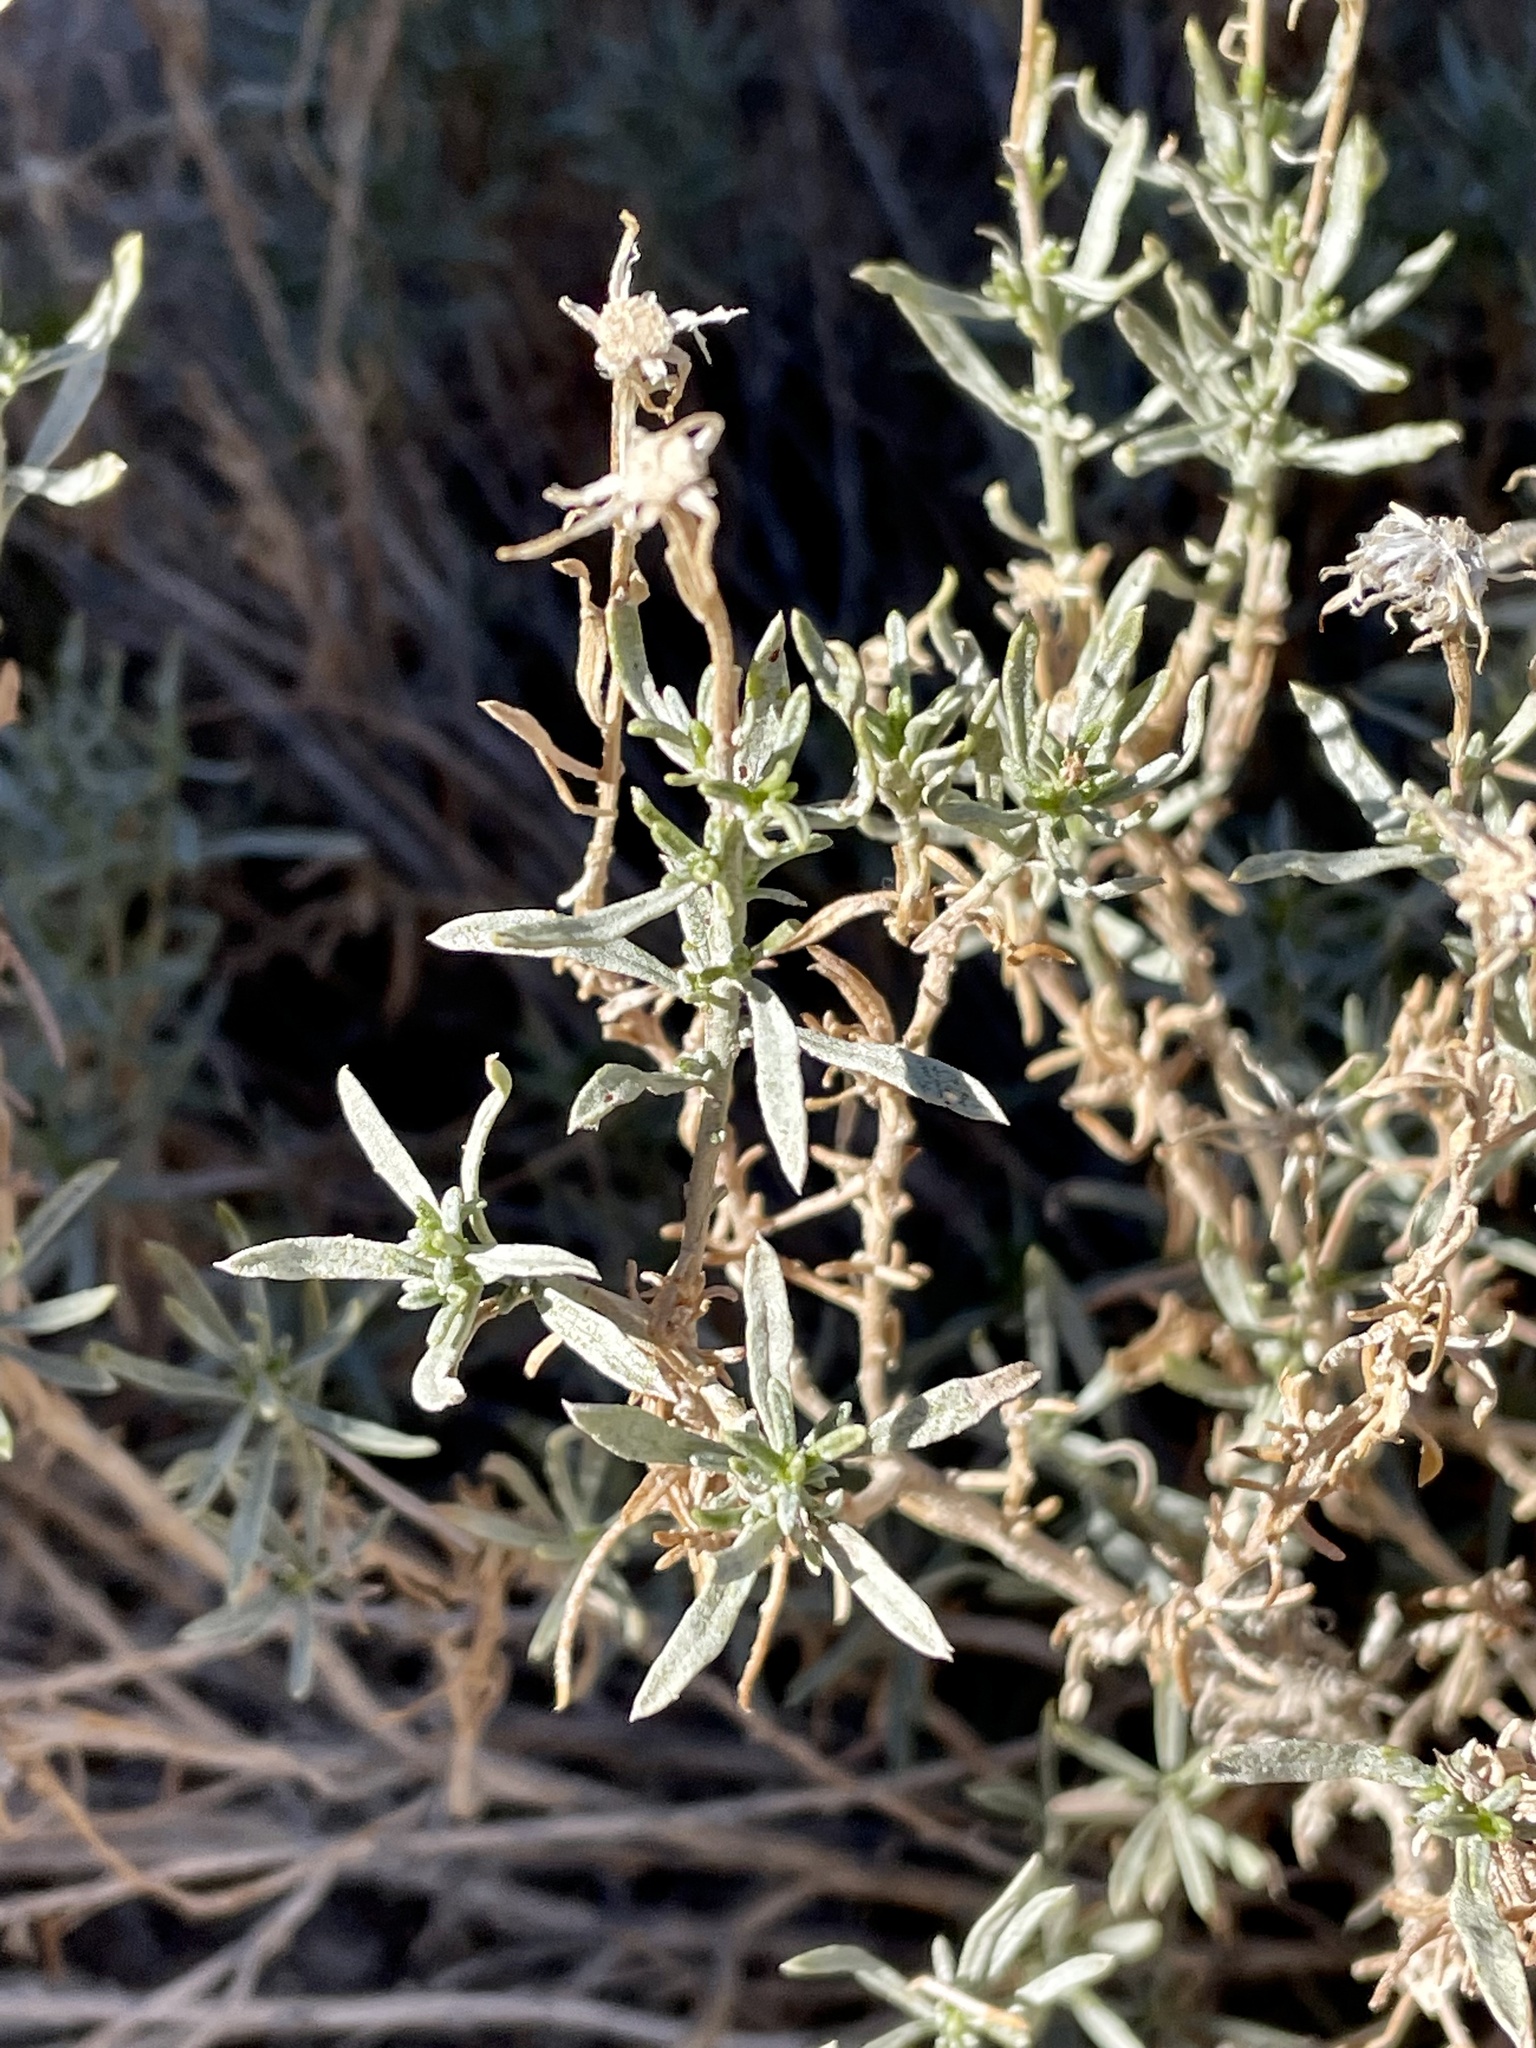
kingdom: Plantae
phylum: Tracheophyta
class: Magnoliopsida
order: Asterales
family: Asteraceae
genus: Ericameria
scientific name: Ericameria linearifolia
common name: Interior goldenbush
